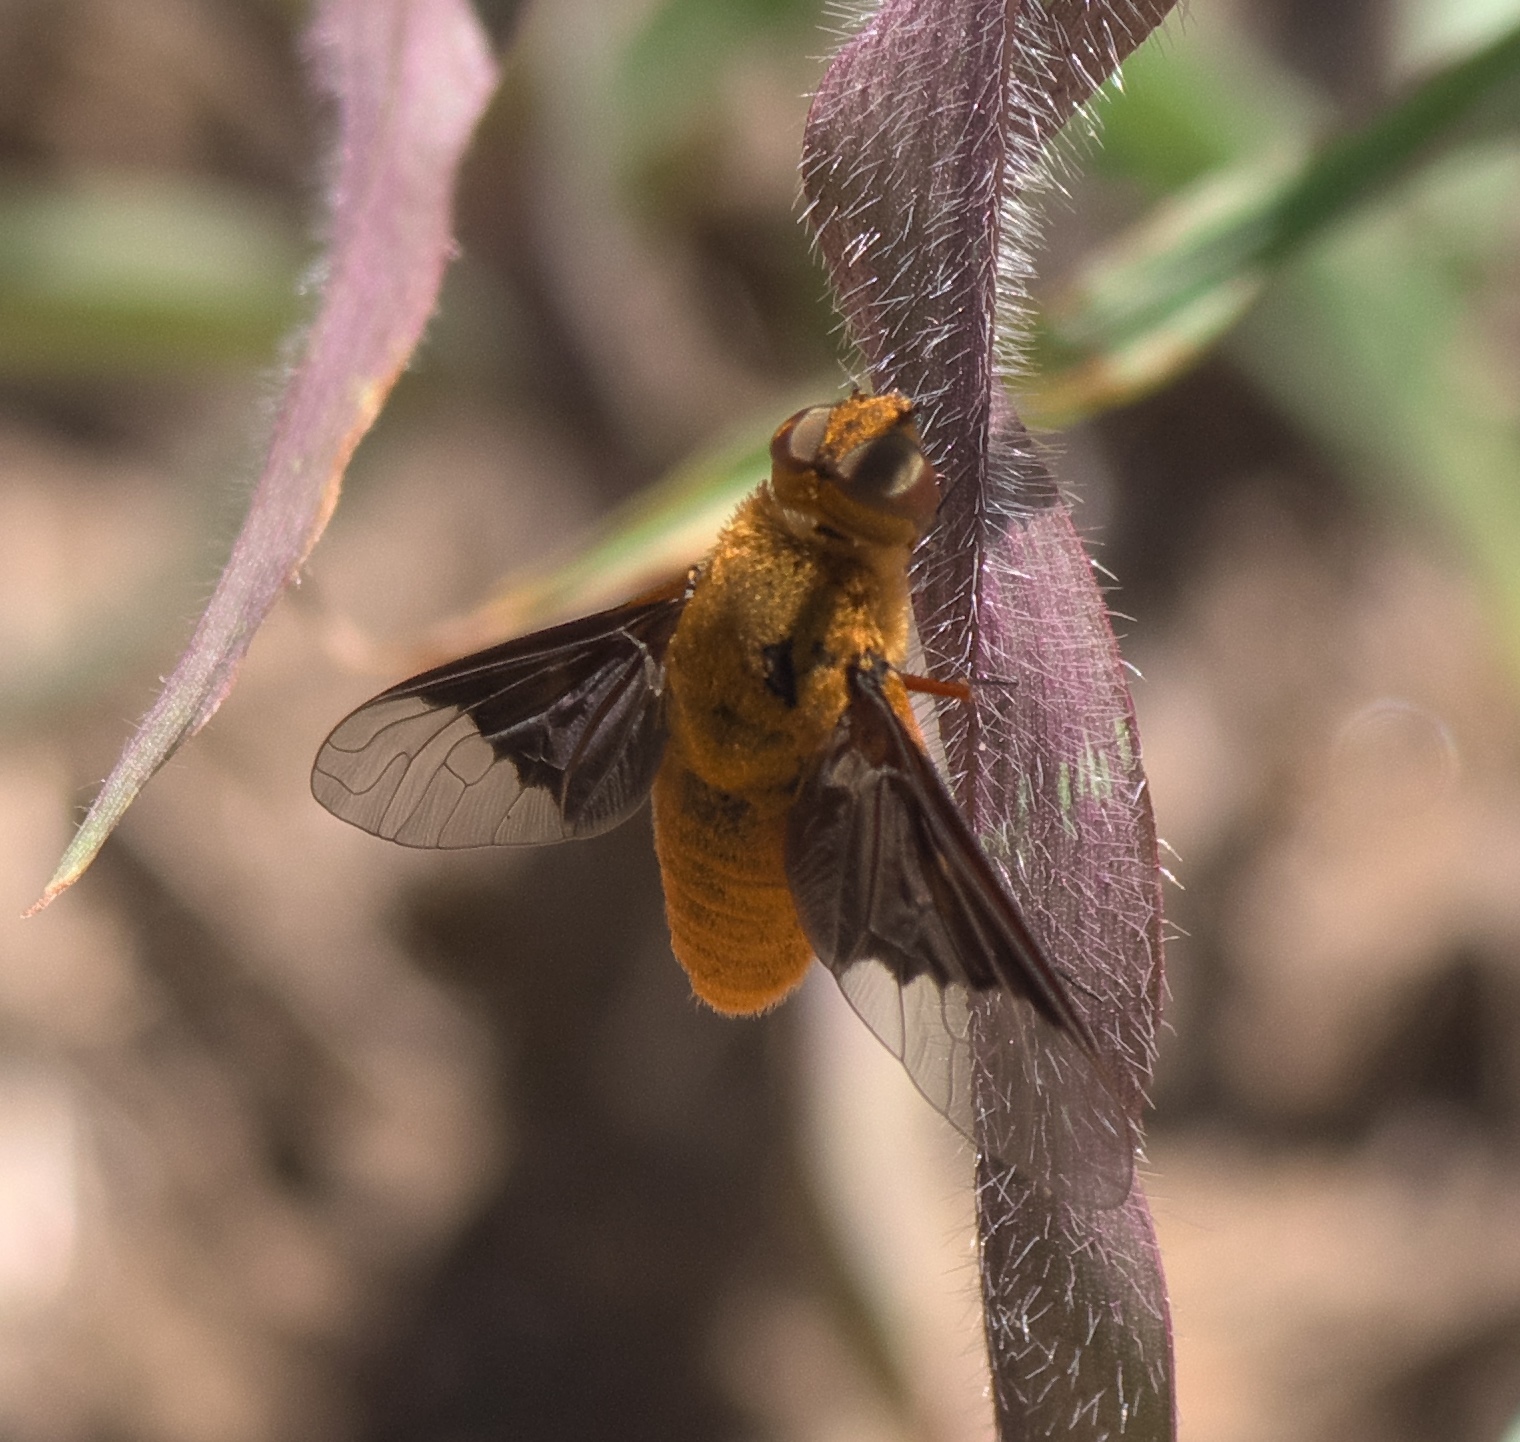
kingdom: Animalia
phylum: Arthropoda
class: Insecta
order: Diptera
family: Bombyliidae
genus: Chrysanthrax
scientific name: Chrysanthrax cypris
